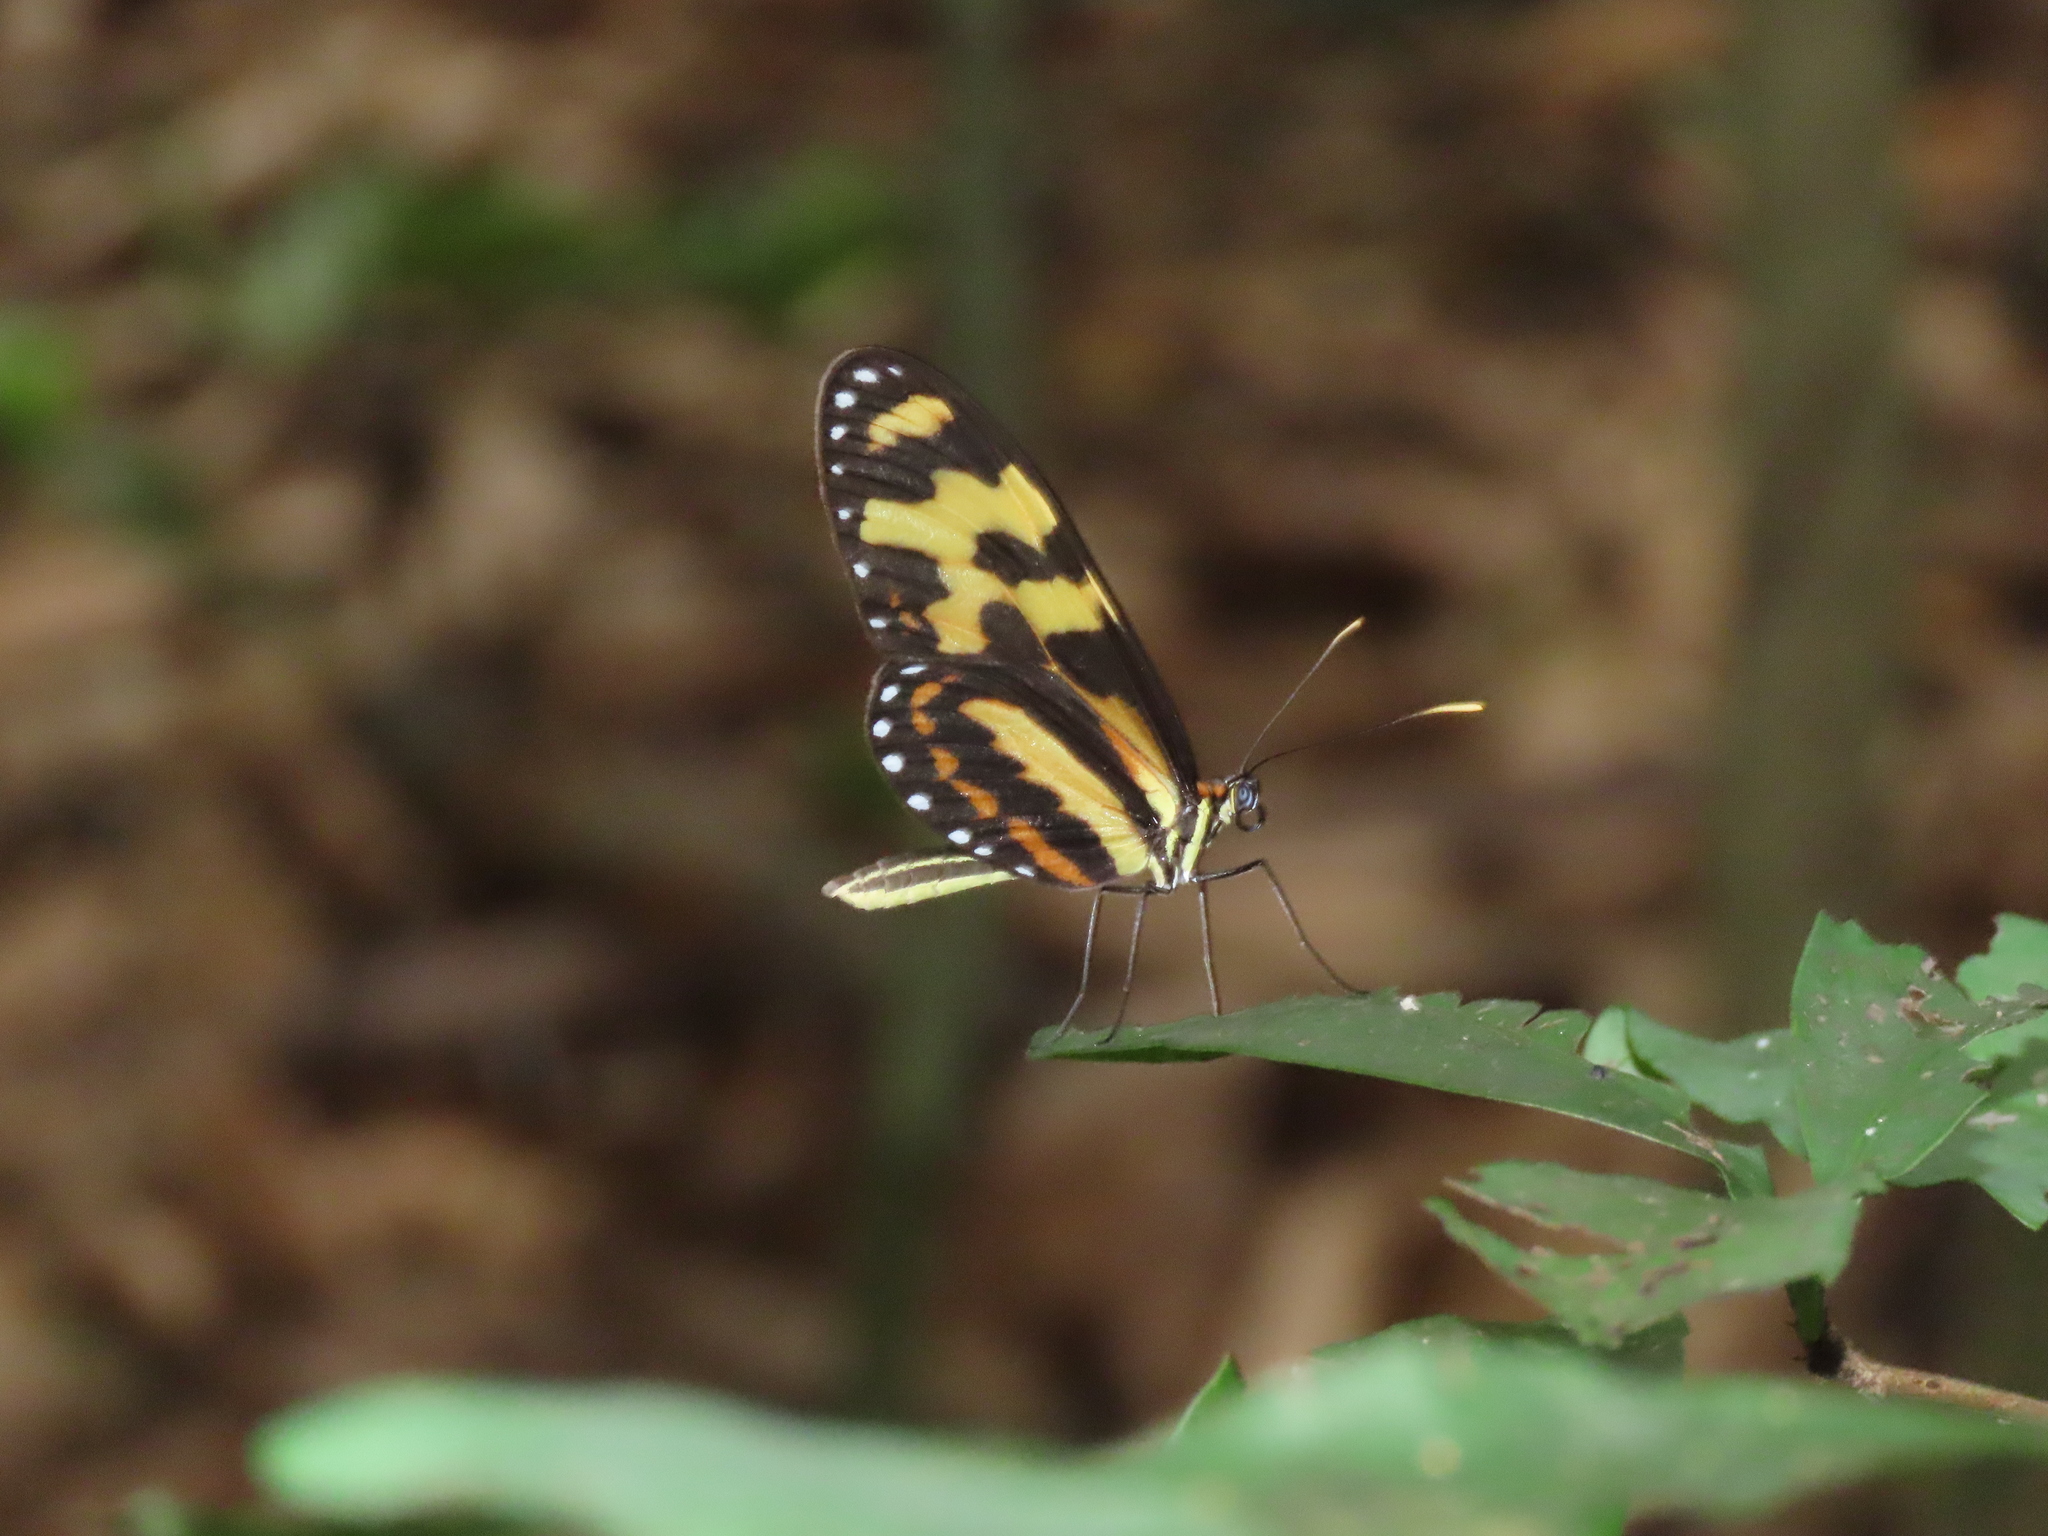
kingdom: Animalia
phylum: Arthropoda
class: Insecta
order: Lepidoptera
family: Nymphalidae
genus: Mechanitis
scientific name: Mechanitis menapis
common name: Menapis tigerwing
